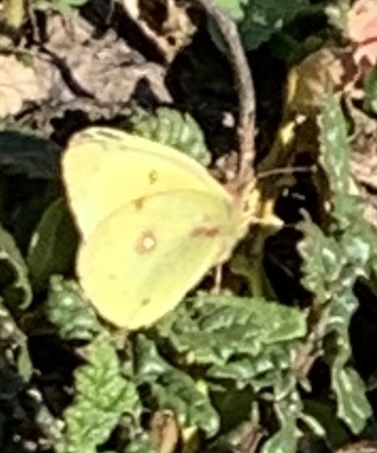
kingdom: Animalia
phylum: Arthropoda
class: Insecta
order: Lepidoptera
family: Pieridae
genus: Colias
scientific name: Colias eurytheme
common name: Alfalfa butterfly
